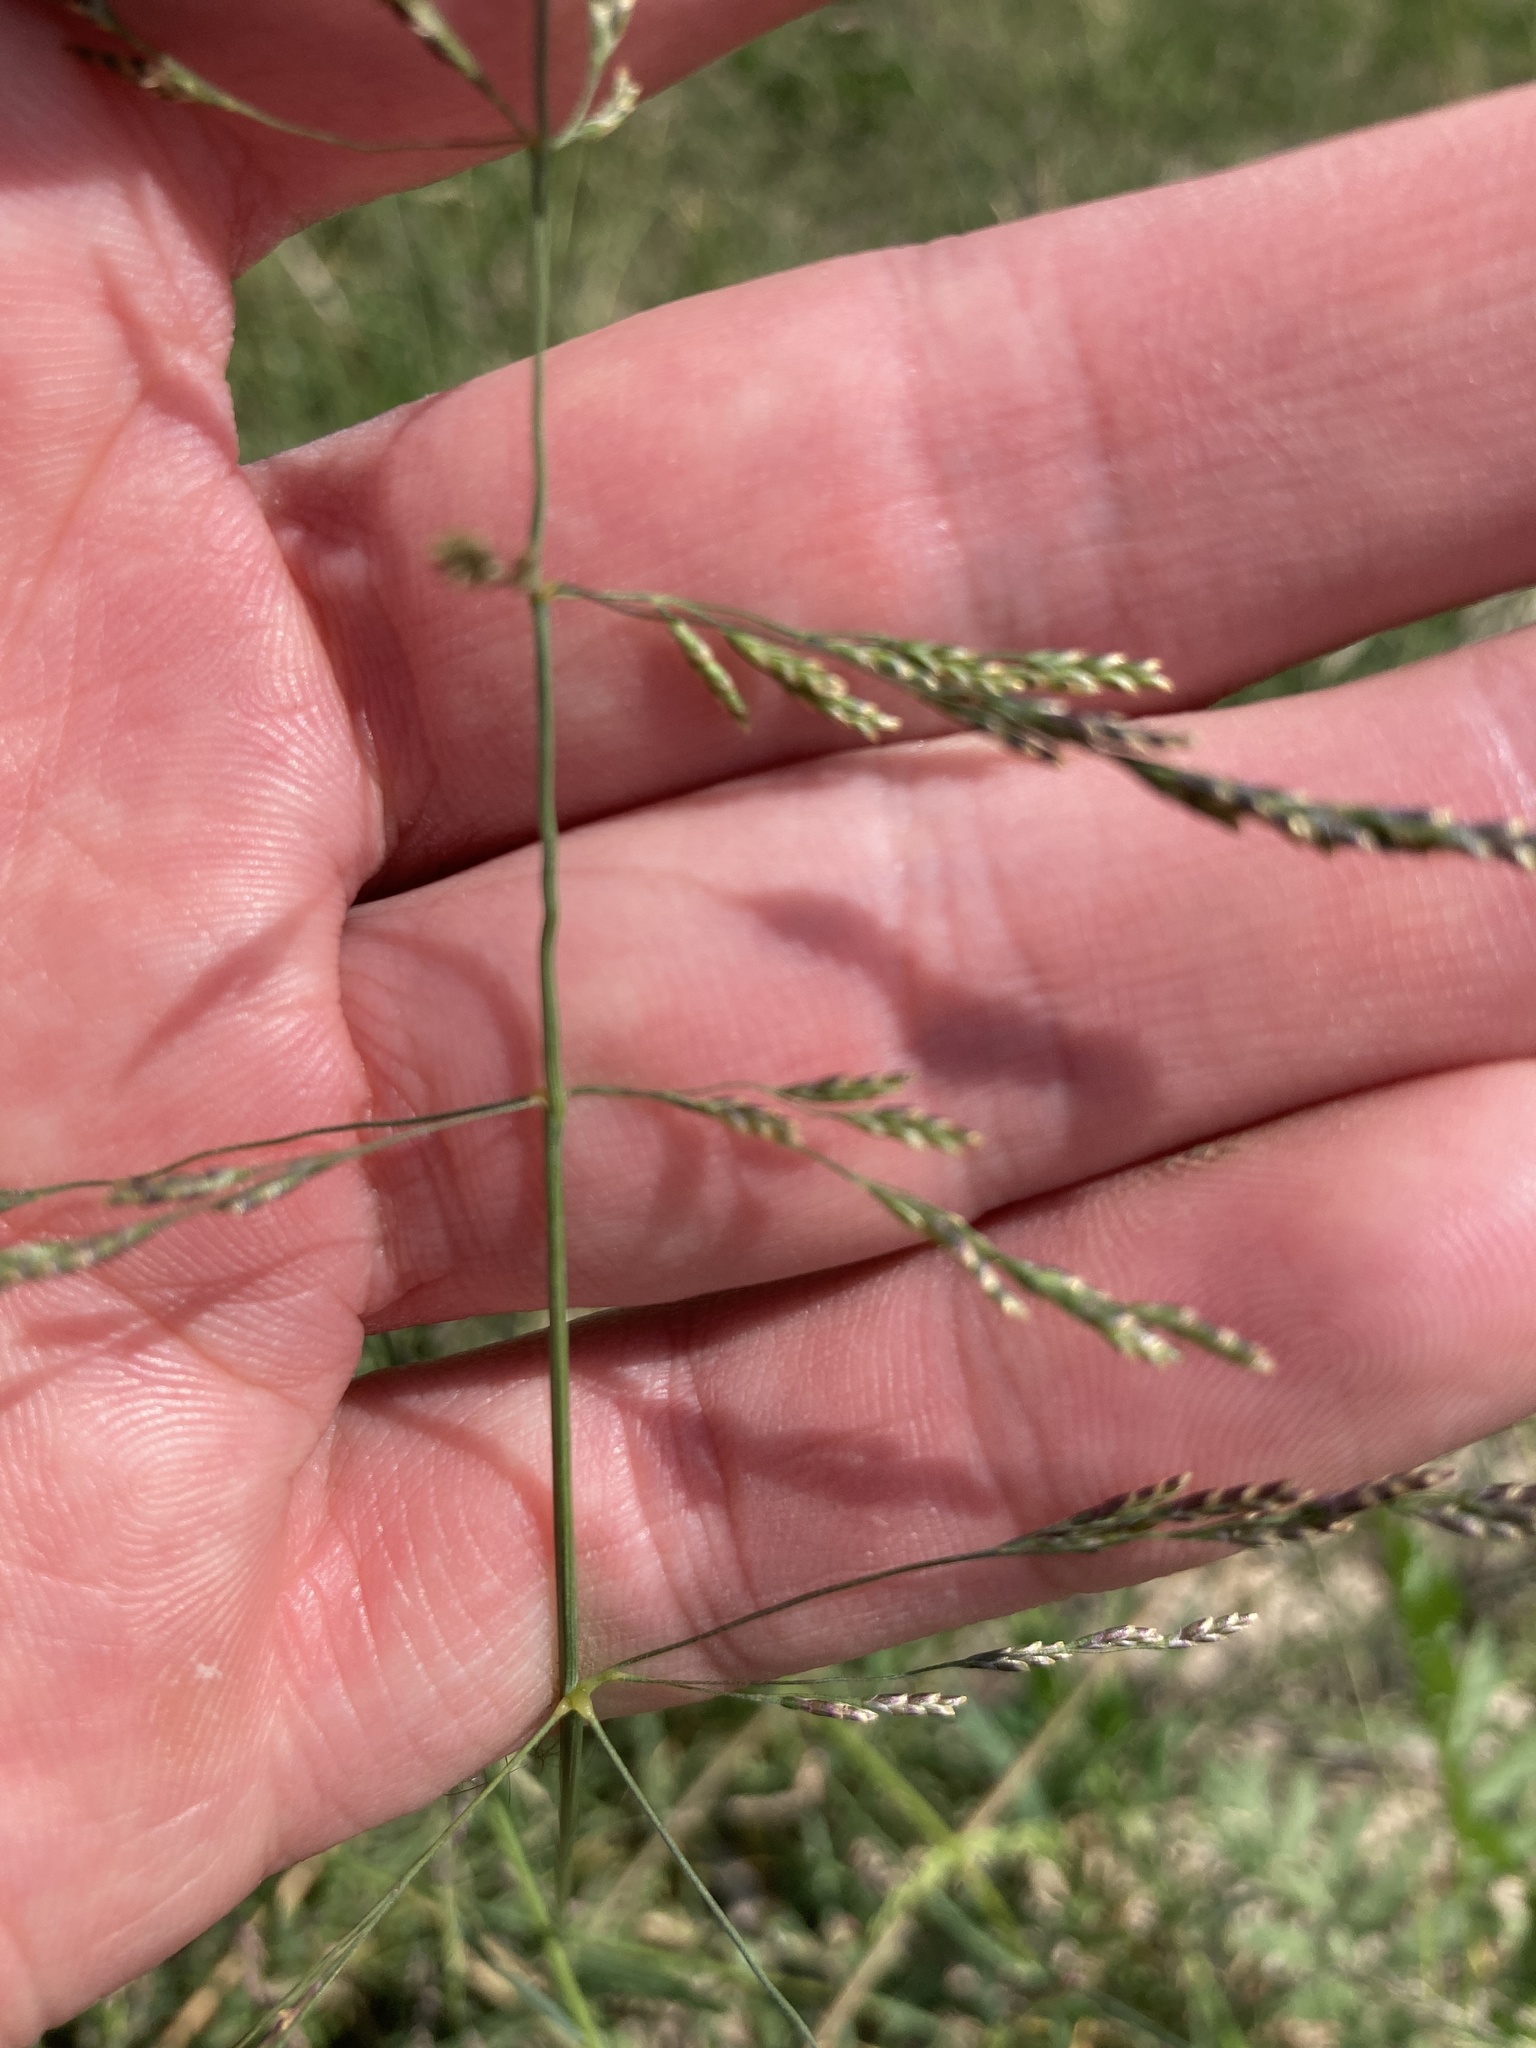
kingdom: Plantae
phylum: Tracheophyta
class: Liliopsida
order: Poales
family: Poaceae
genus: Puccinellia
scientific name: Puccinellia distans
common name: Weeping alkaligrass
